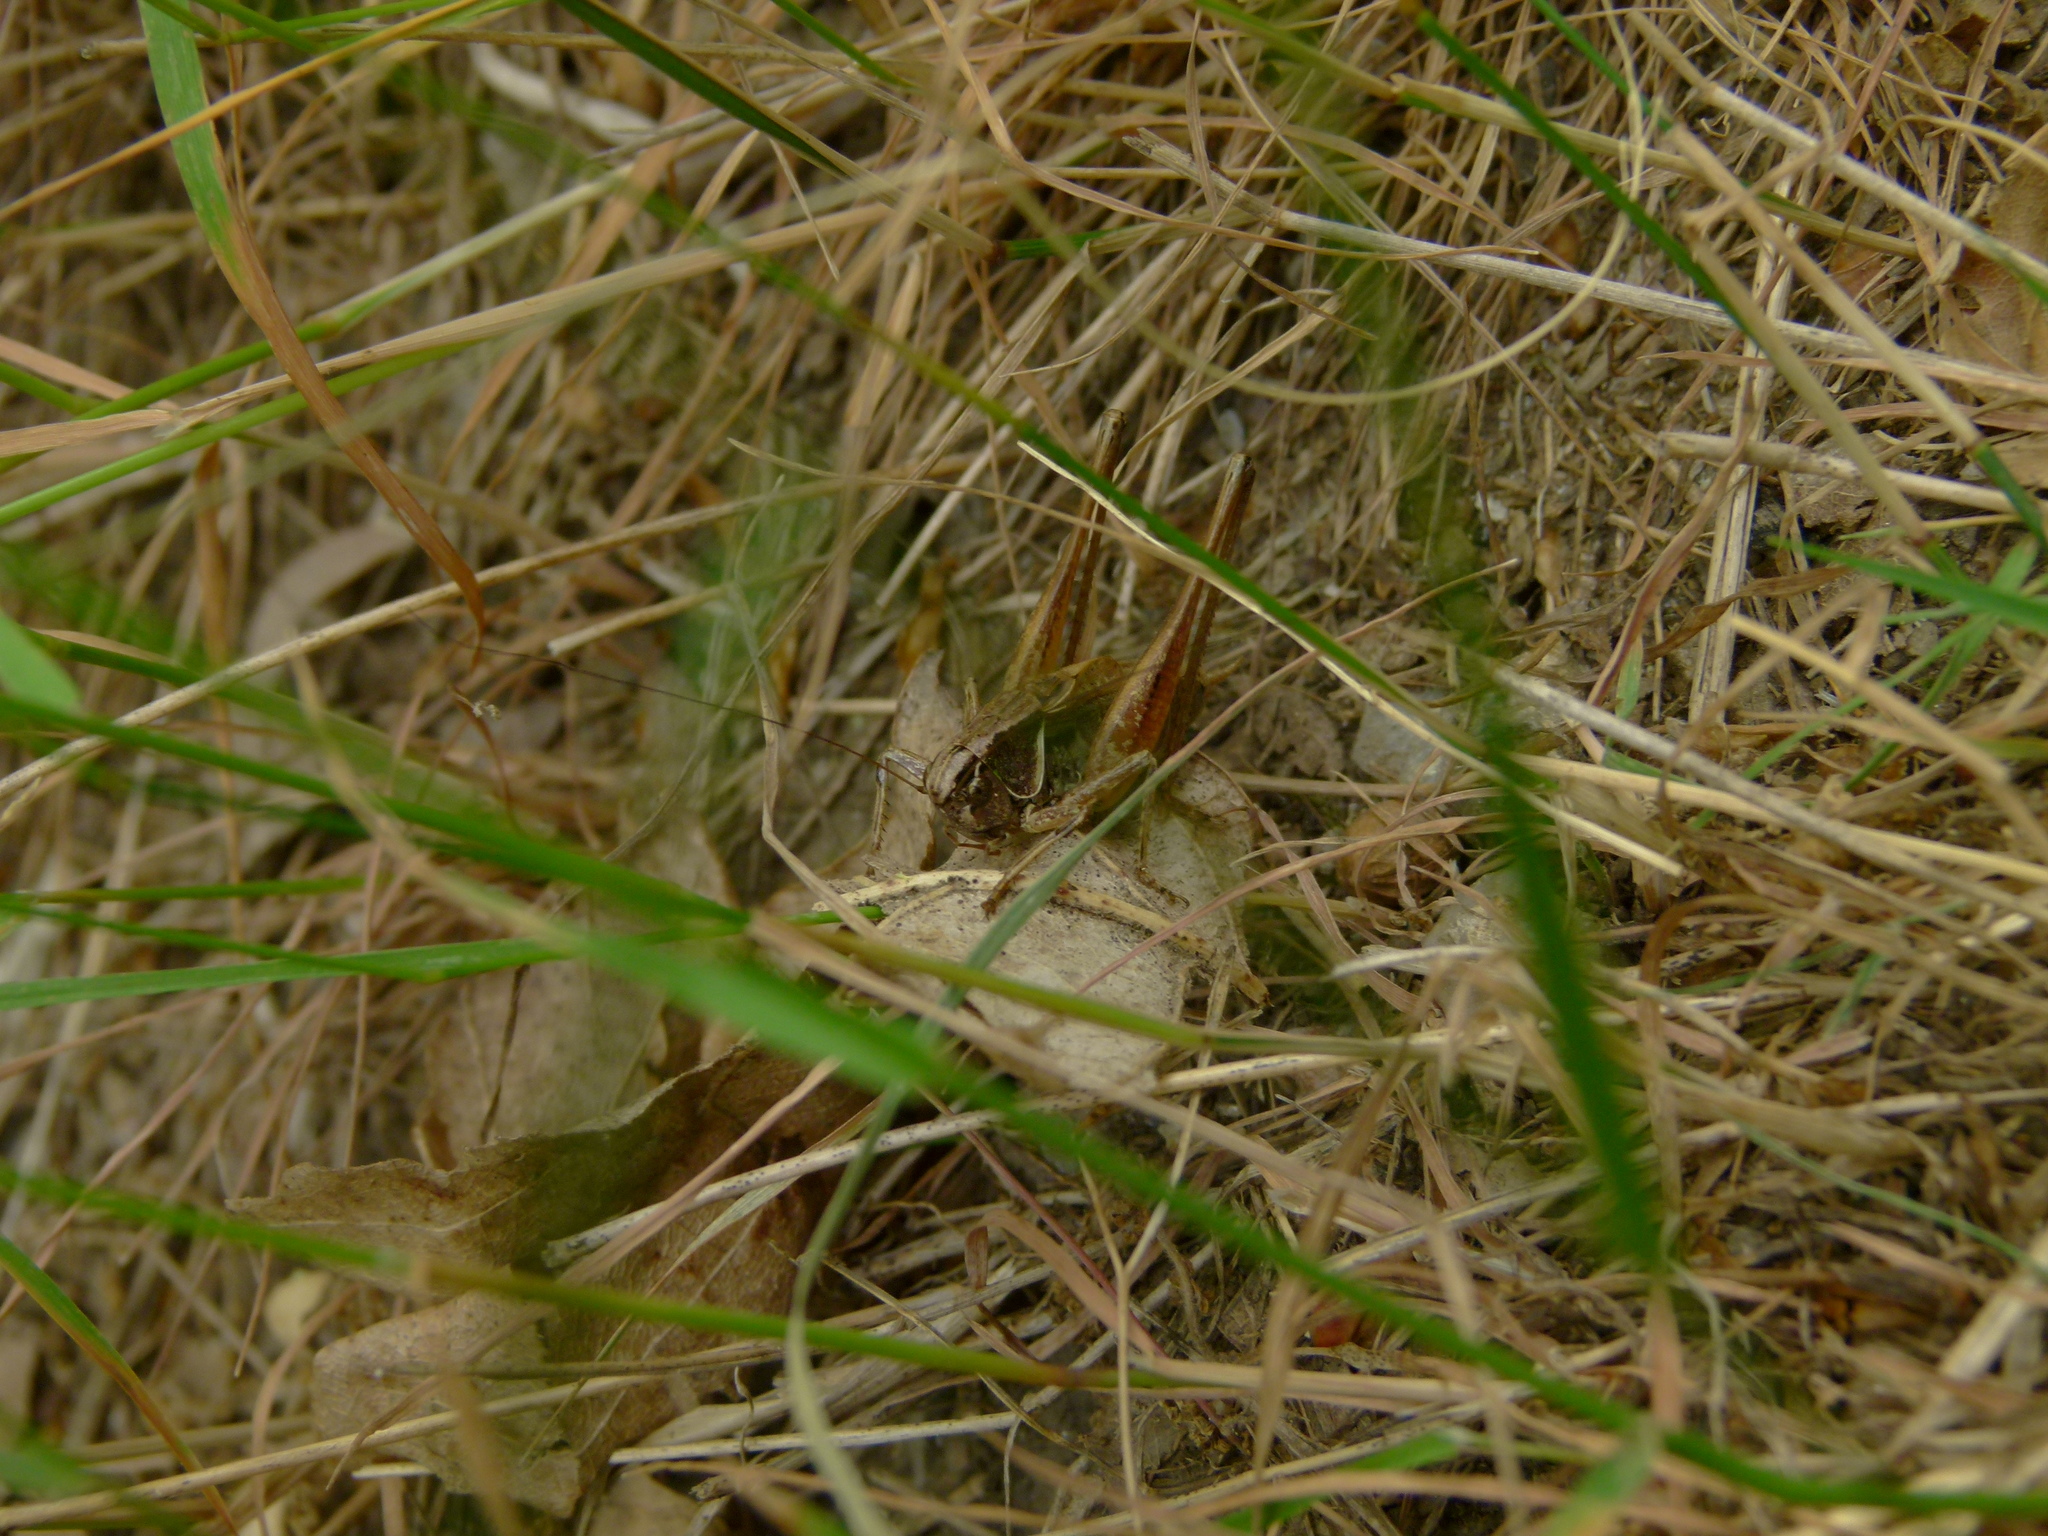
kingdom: Animalia
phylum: Arthropoda
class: Insecta
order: Orthoptera
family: Tettigoniidae
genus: Metrioptera
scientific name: Metrioptera saussuriana
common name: Purple meadow bush-cricket
